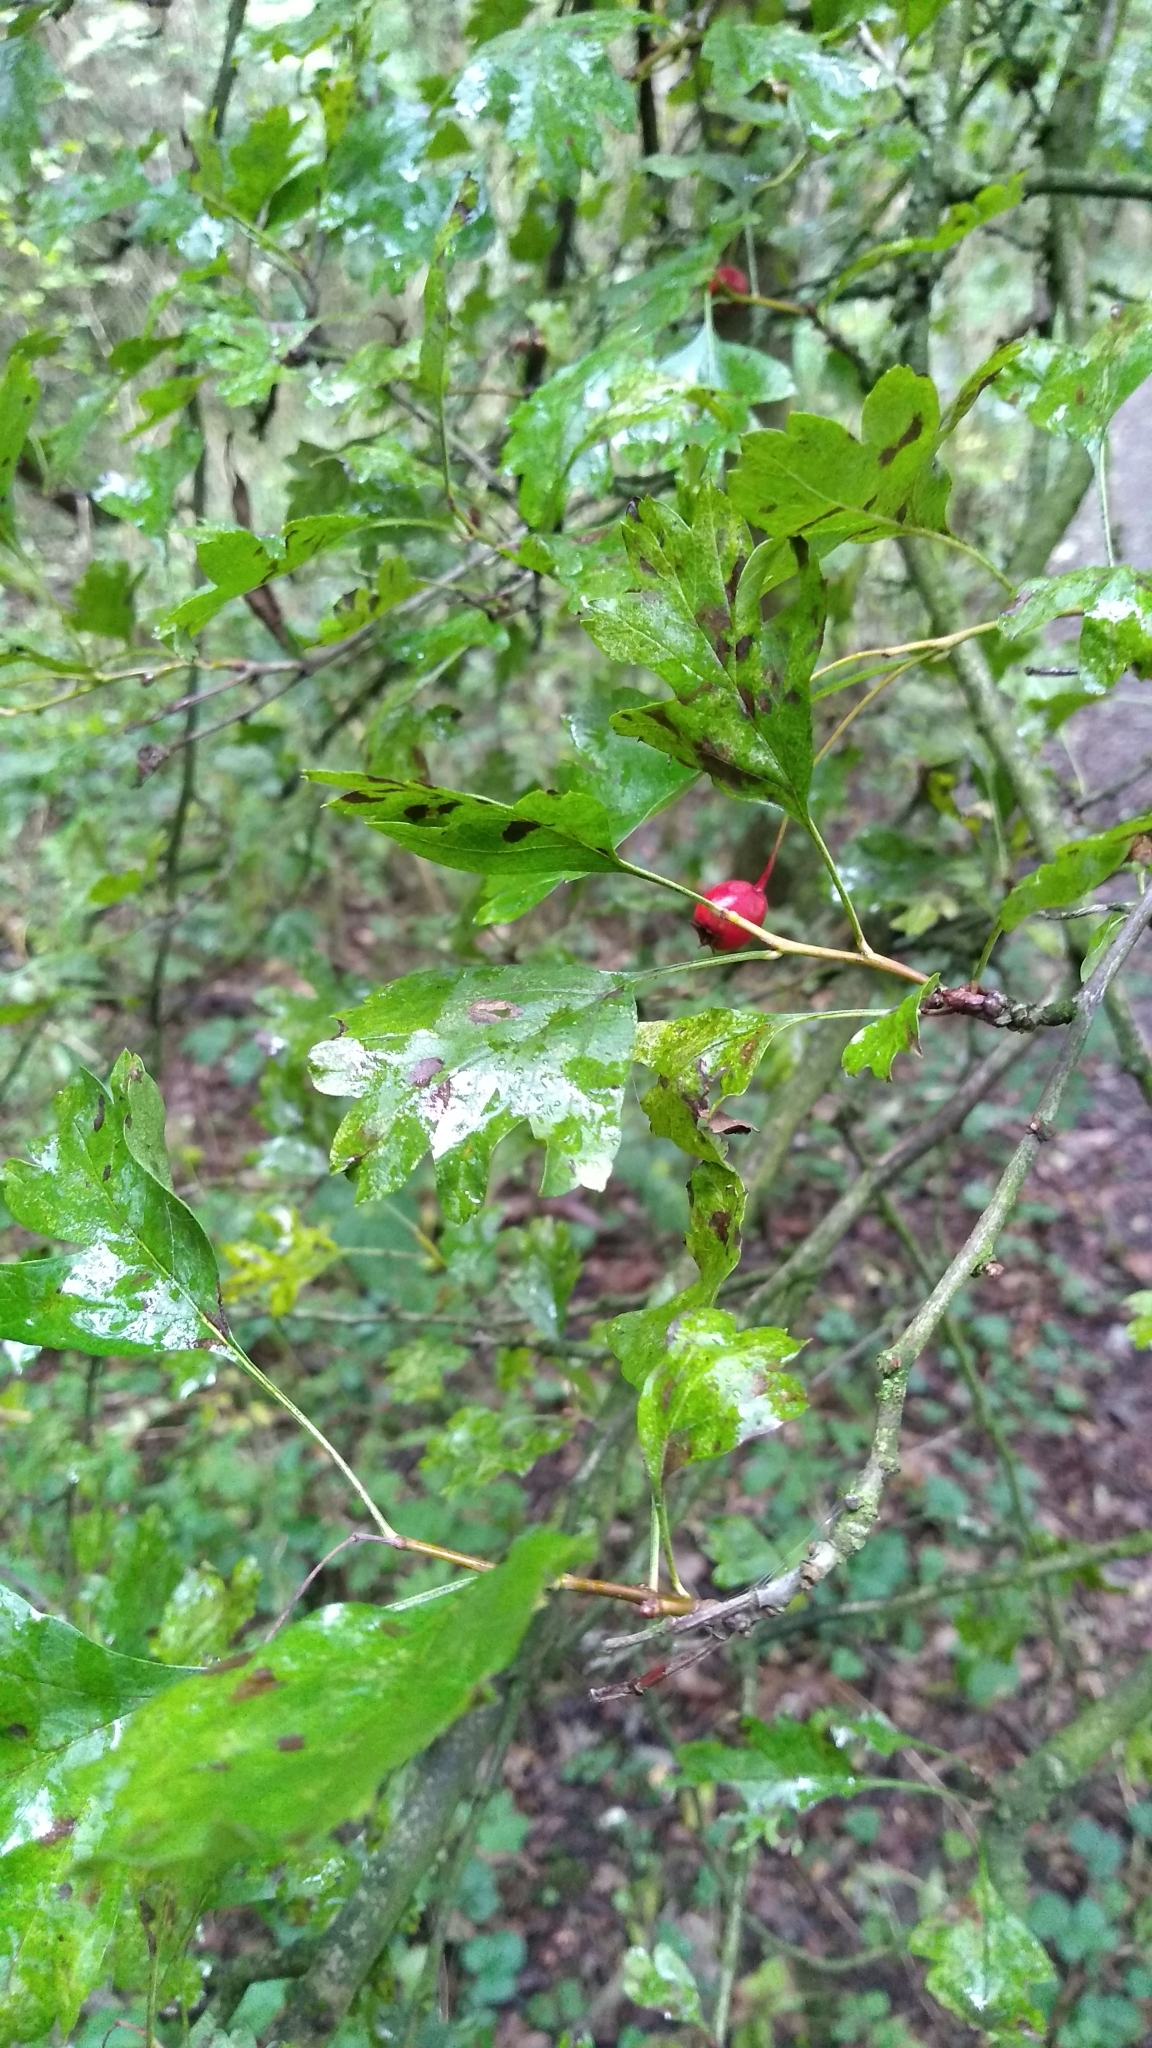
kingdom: Plantae
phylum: Tracheophyta
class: Magnoliopsida
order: Rosales
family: Rosaceae
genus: Crataegus
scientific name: Crataegus monogyna
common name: Hawthorn
